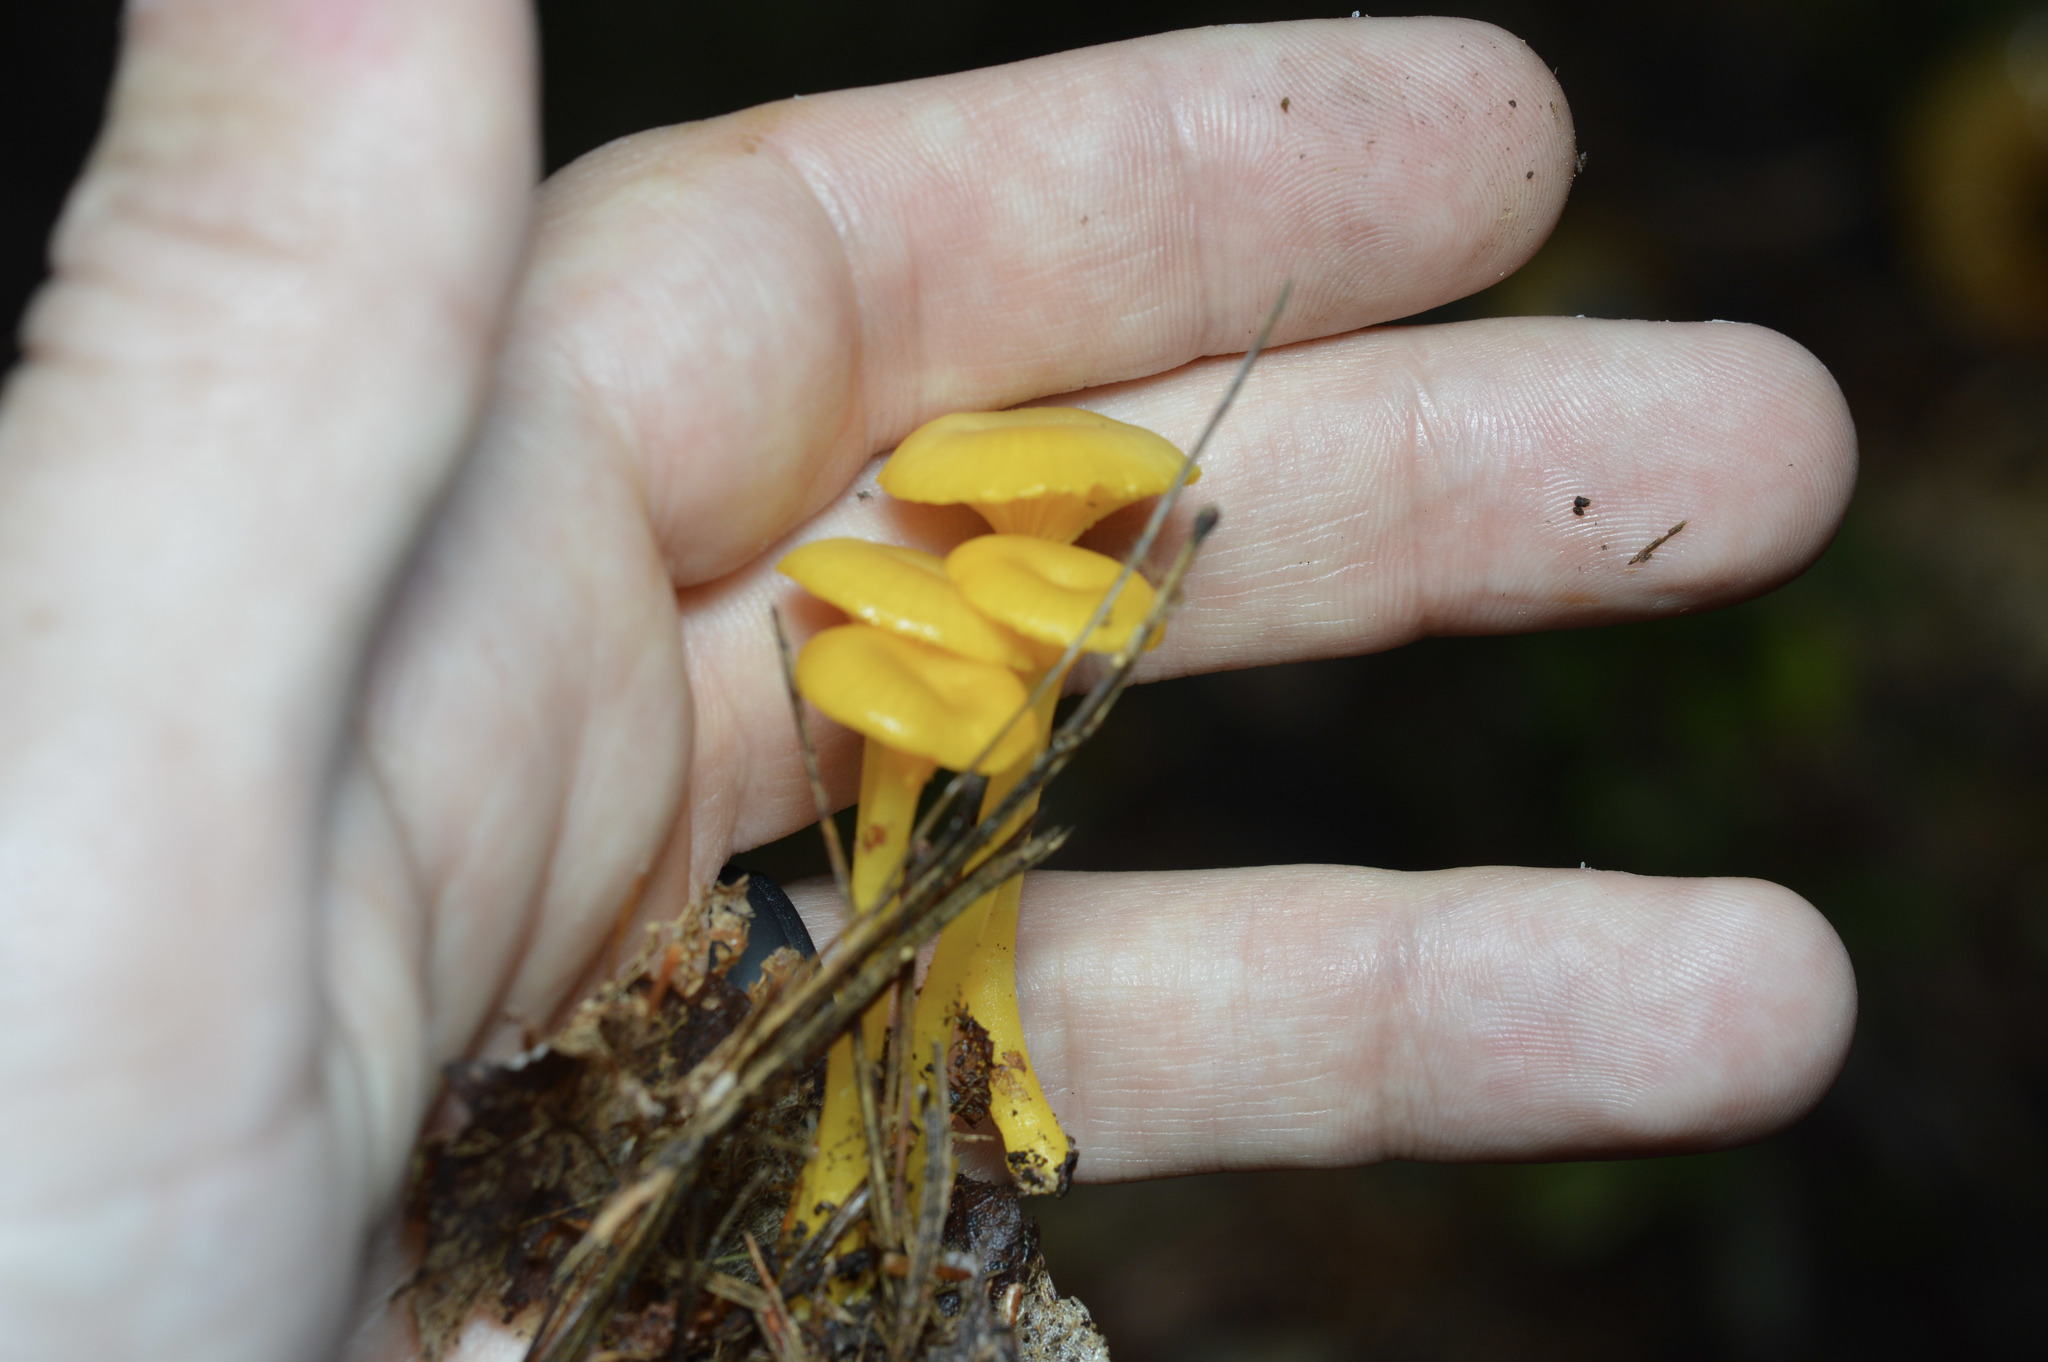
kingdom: Fungi
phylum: Basidiomycota
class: Agaricomycetes
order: Agaricales
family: Hygrophoraceae
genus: Gloioxanthomyces
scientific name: Gloioxanthomyces nitidus
